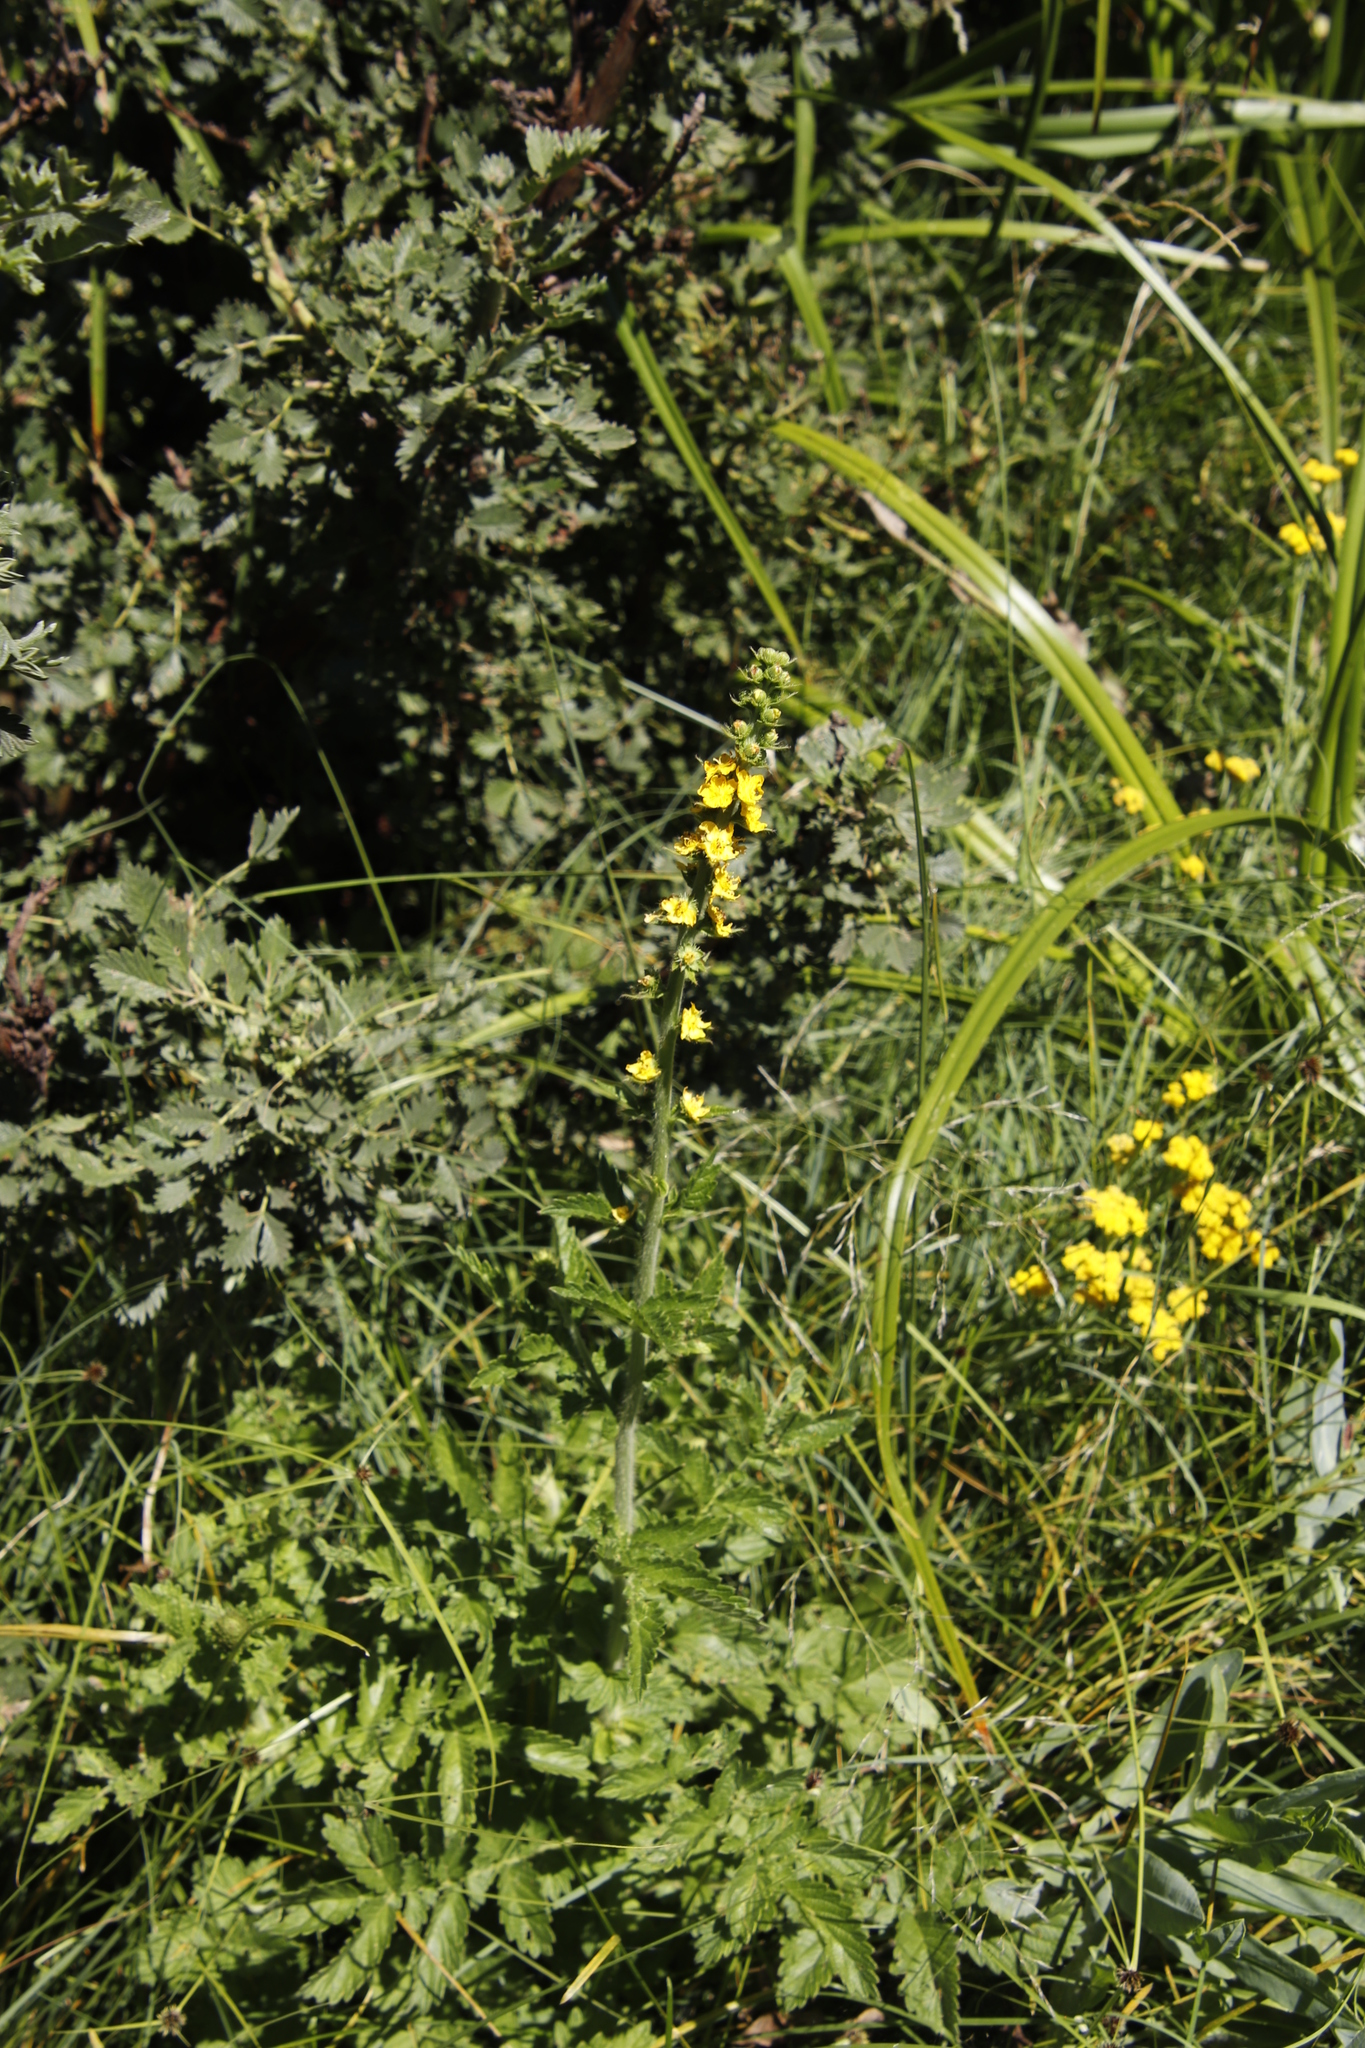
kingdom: Plantae
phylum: Tracheophyta
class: Magnoliopsida
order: Rosales
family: Rosaceae
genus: Agrimonia
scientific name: Agrimonia bracteata
